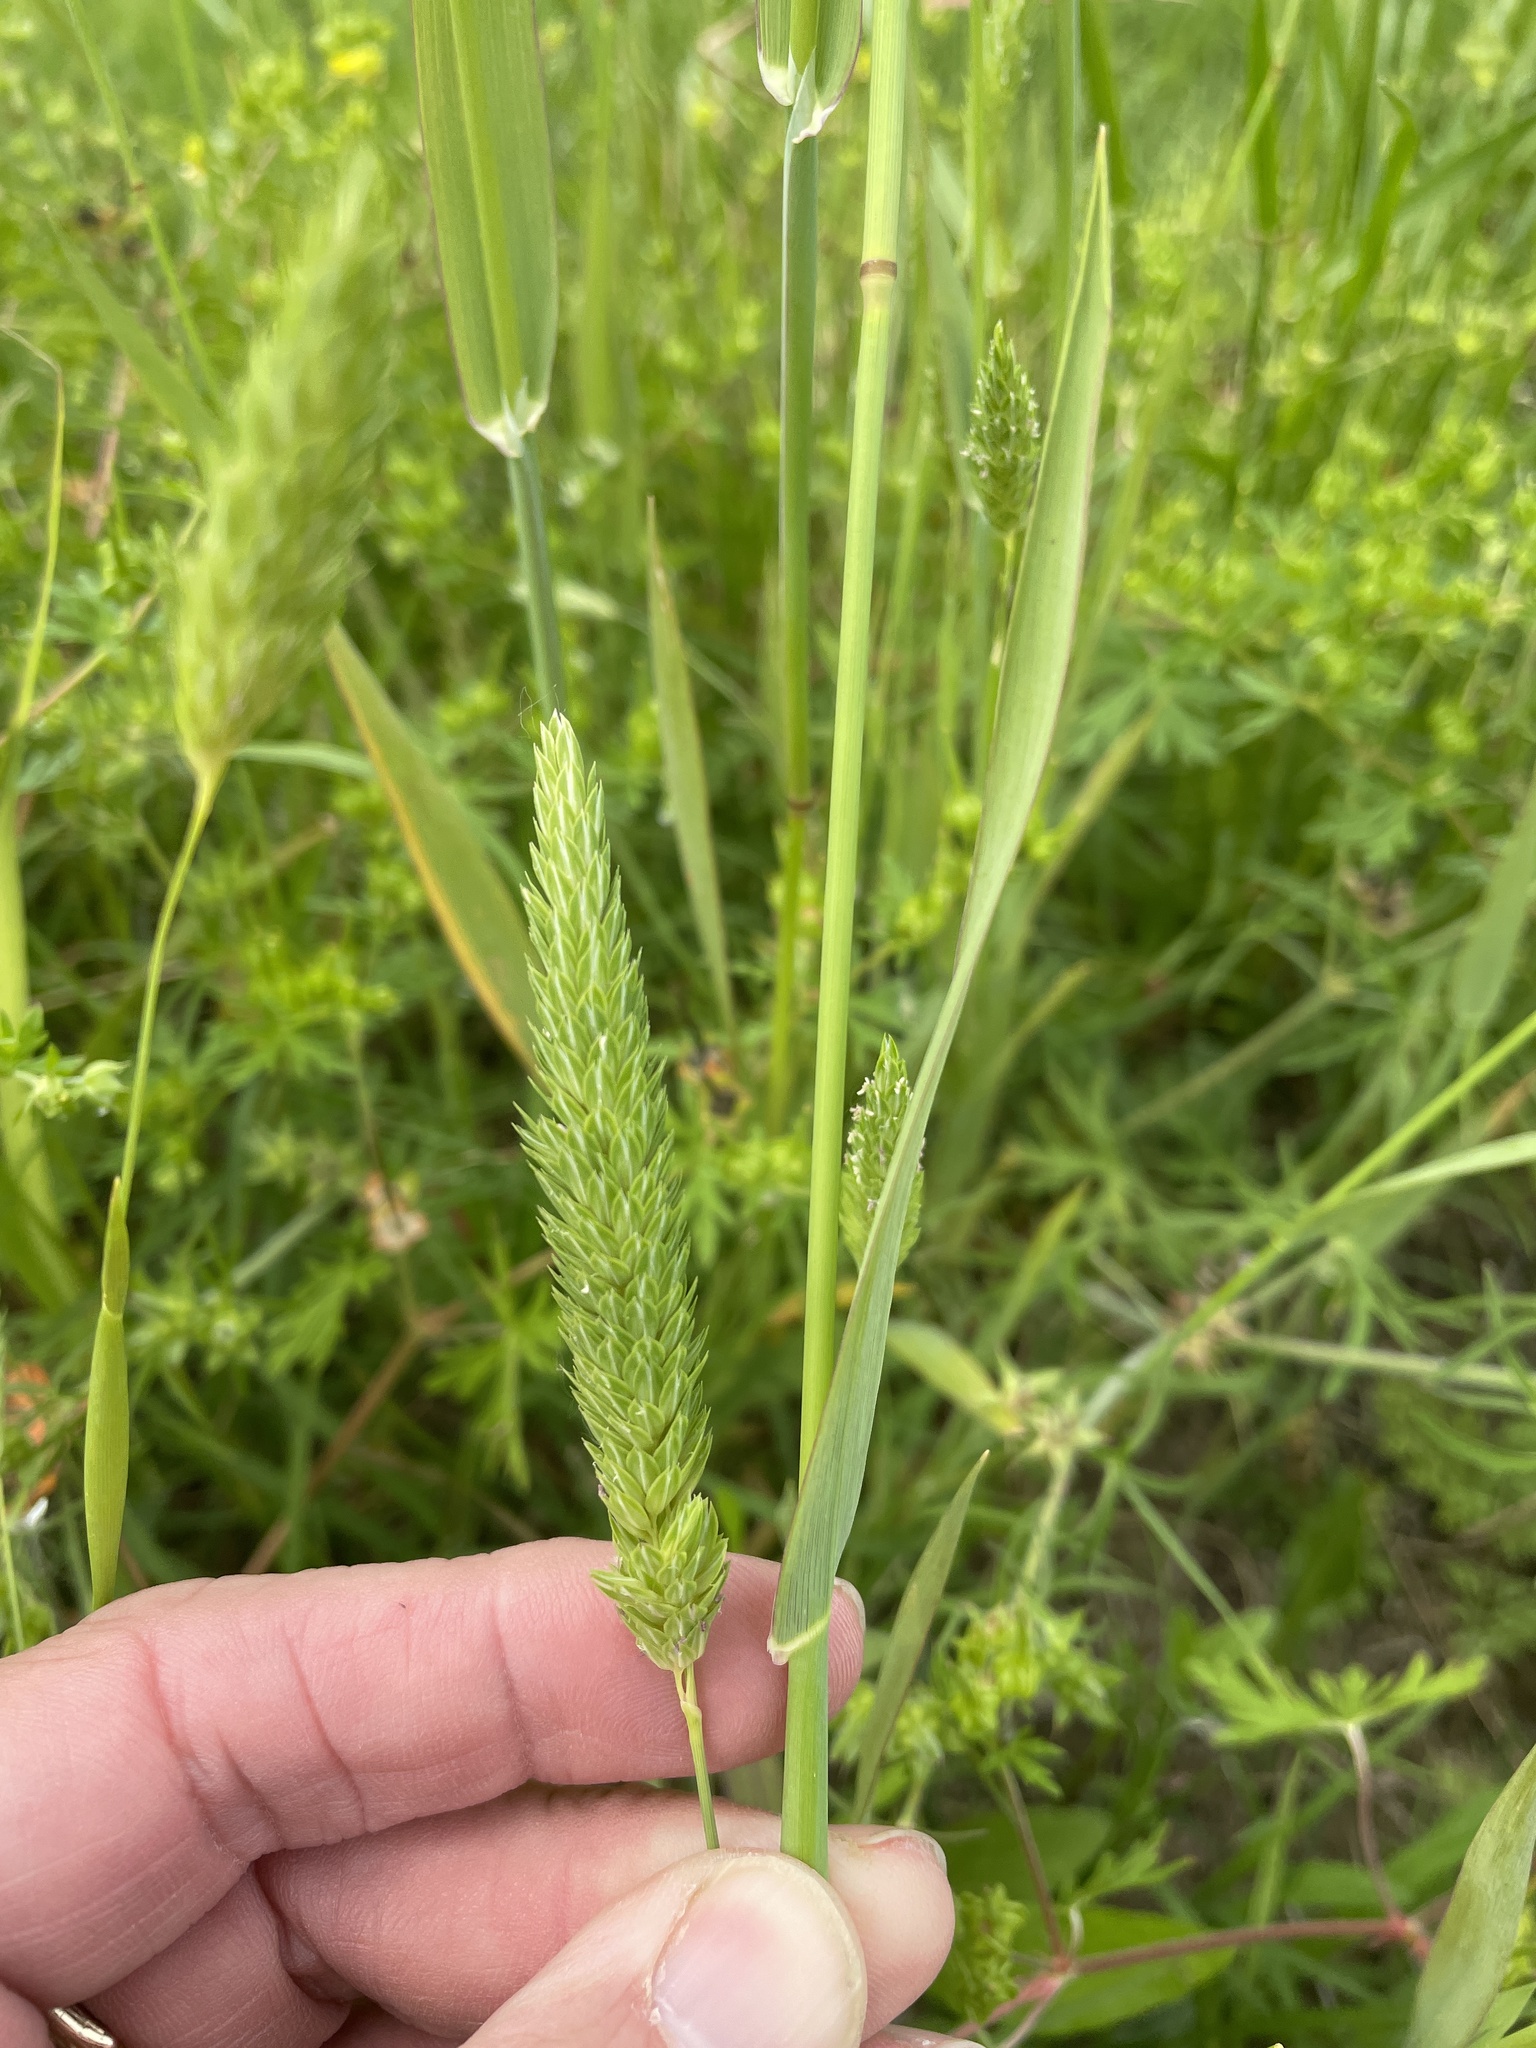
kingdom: Plantae
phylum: Tracheophyta
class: Liliopsida
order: Poales
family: Poaceae
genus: Phalaris
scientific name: Phalaris caroliniana
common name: May grass
